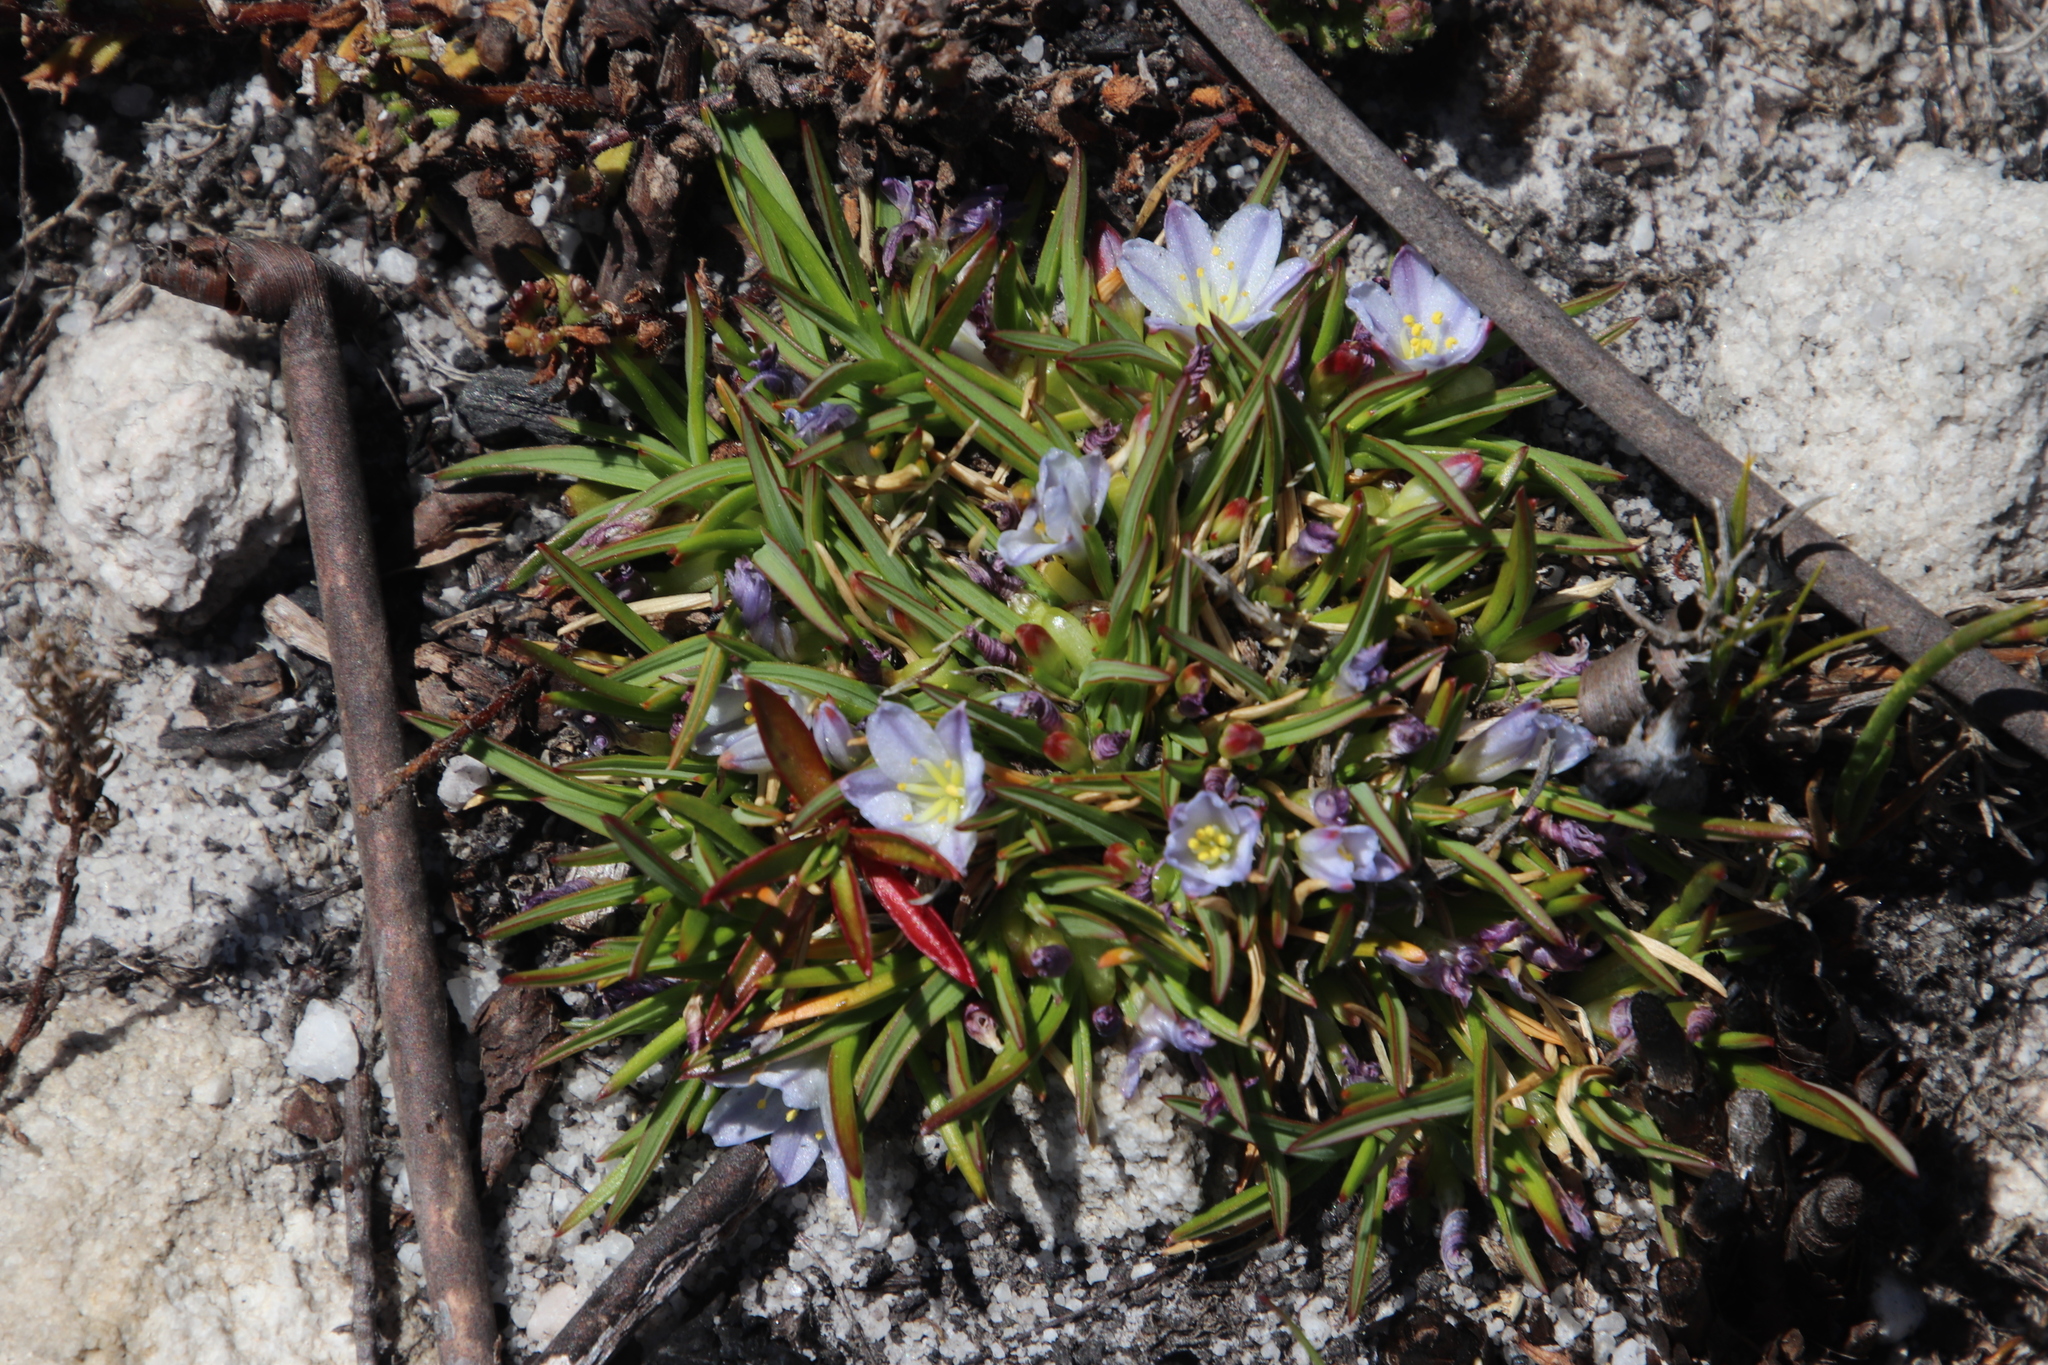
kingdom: Plantae
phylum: Tracheophyta
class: Liliopsida
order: Asparagales
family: Asphodelaceae
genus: Caesia
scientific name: Caesia capensis
